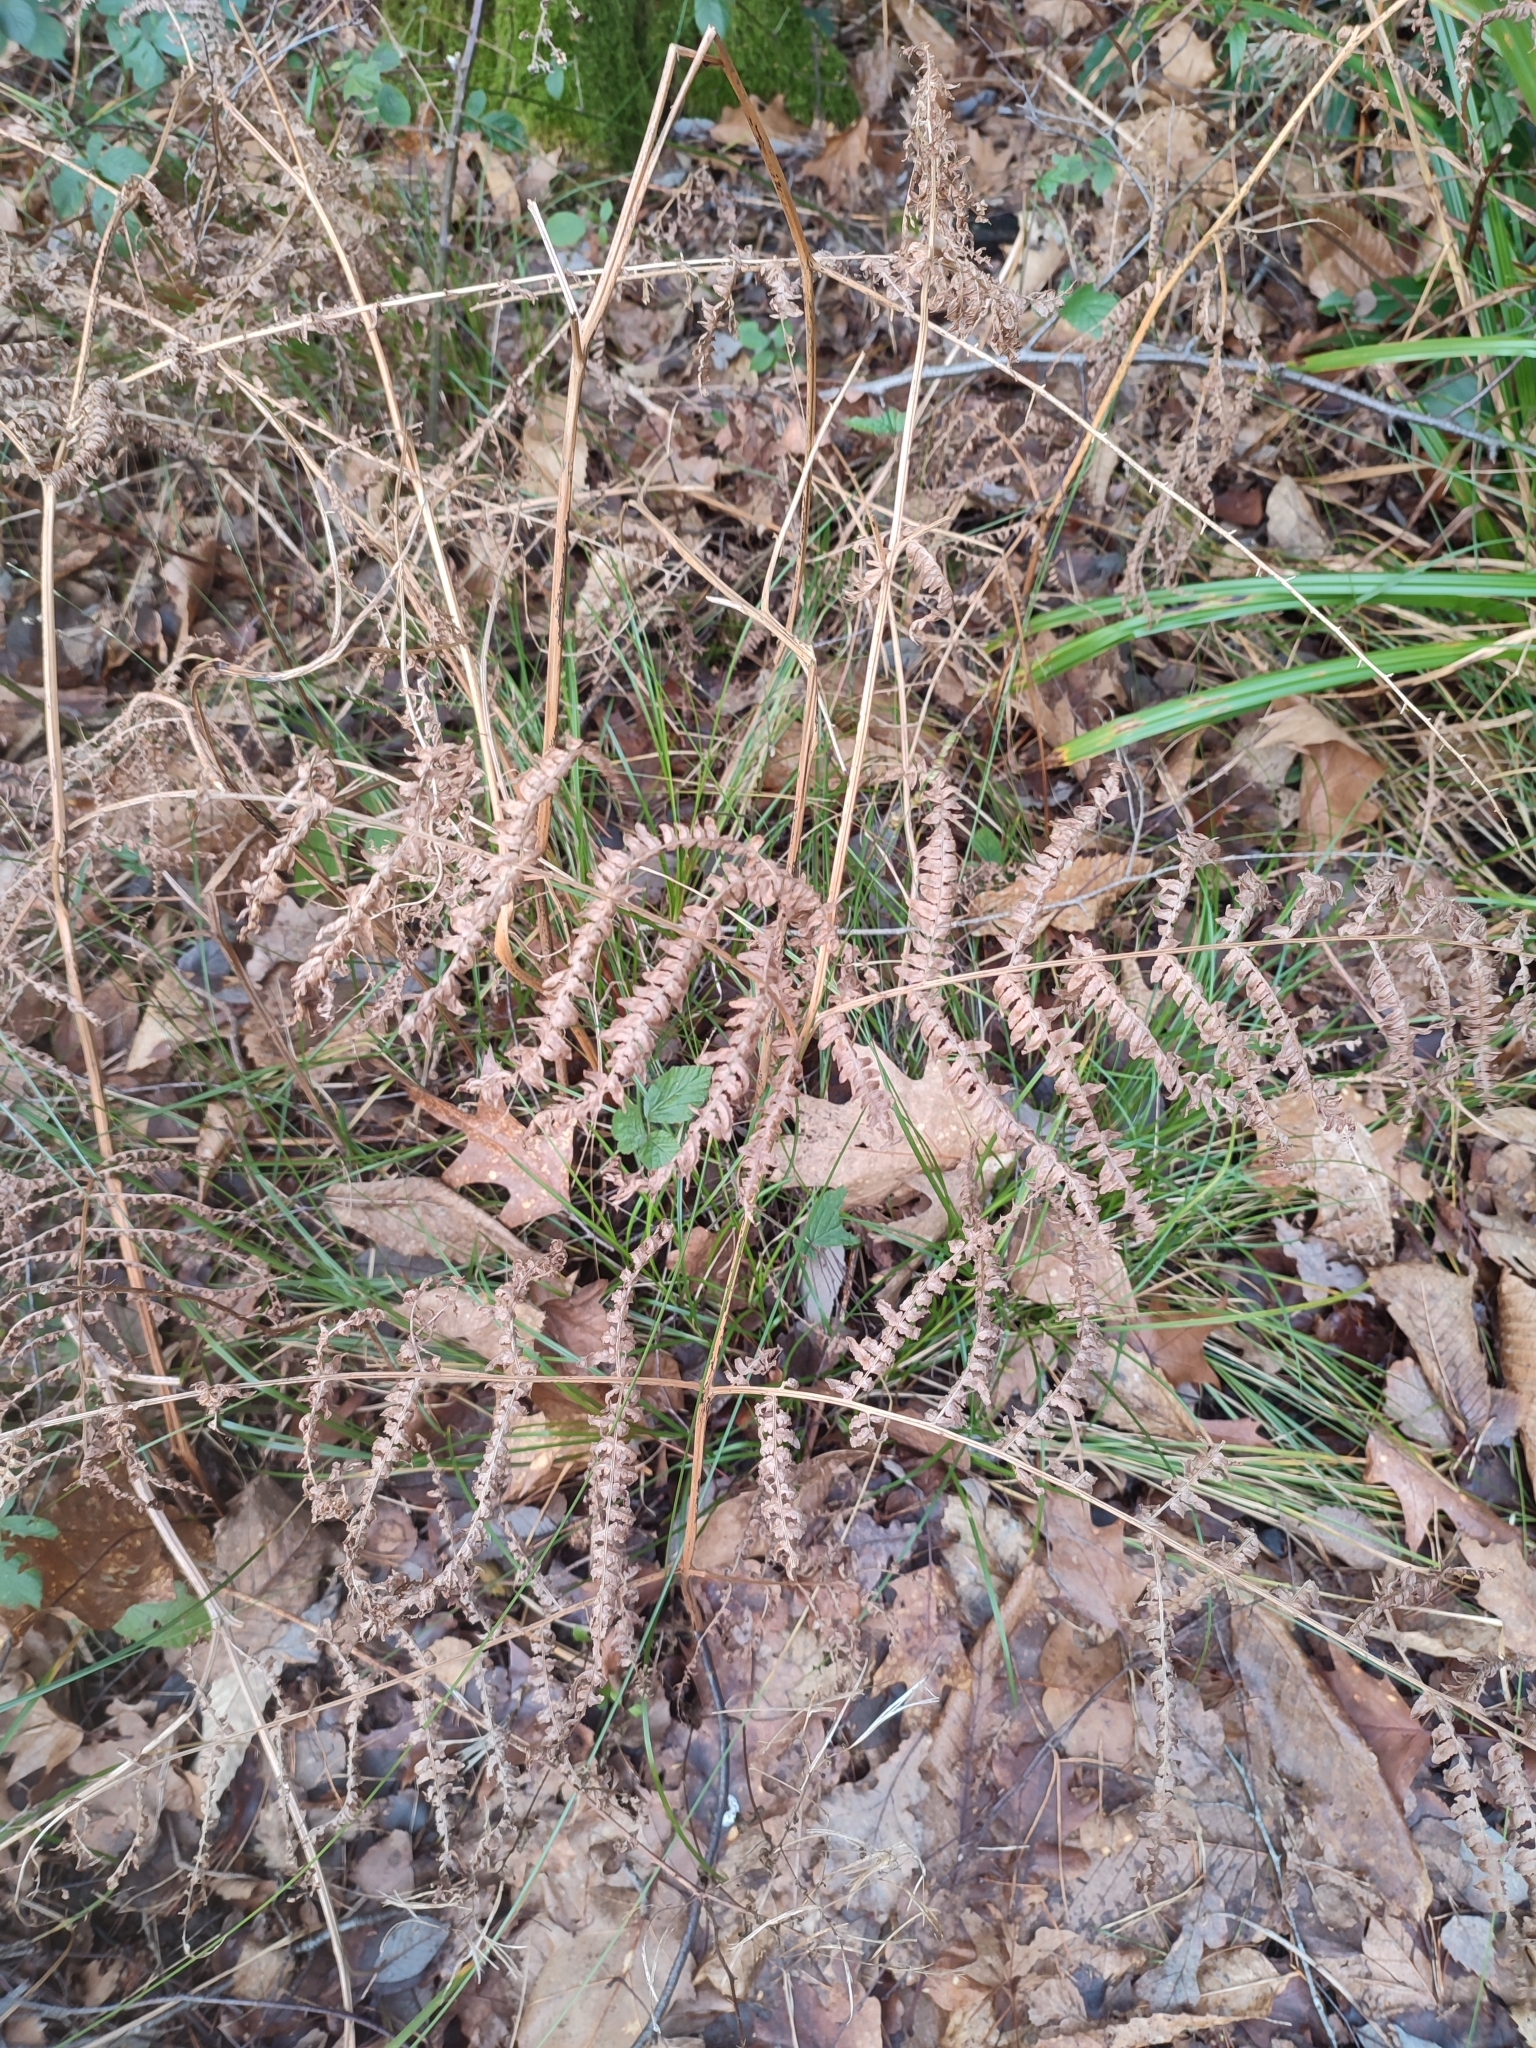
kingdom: Plantae
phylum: Tracheophyta
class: Polypodiopsida
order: Polypodiales
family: Dennstaedtiaceae
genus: Pteridium
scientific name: Pteridium aquilinum
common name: Bracken
